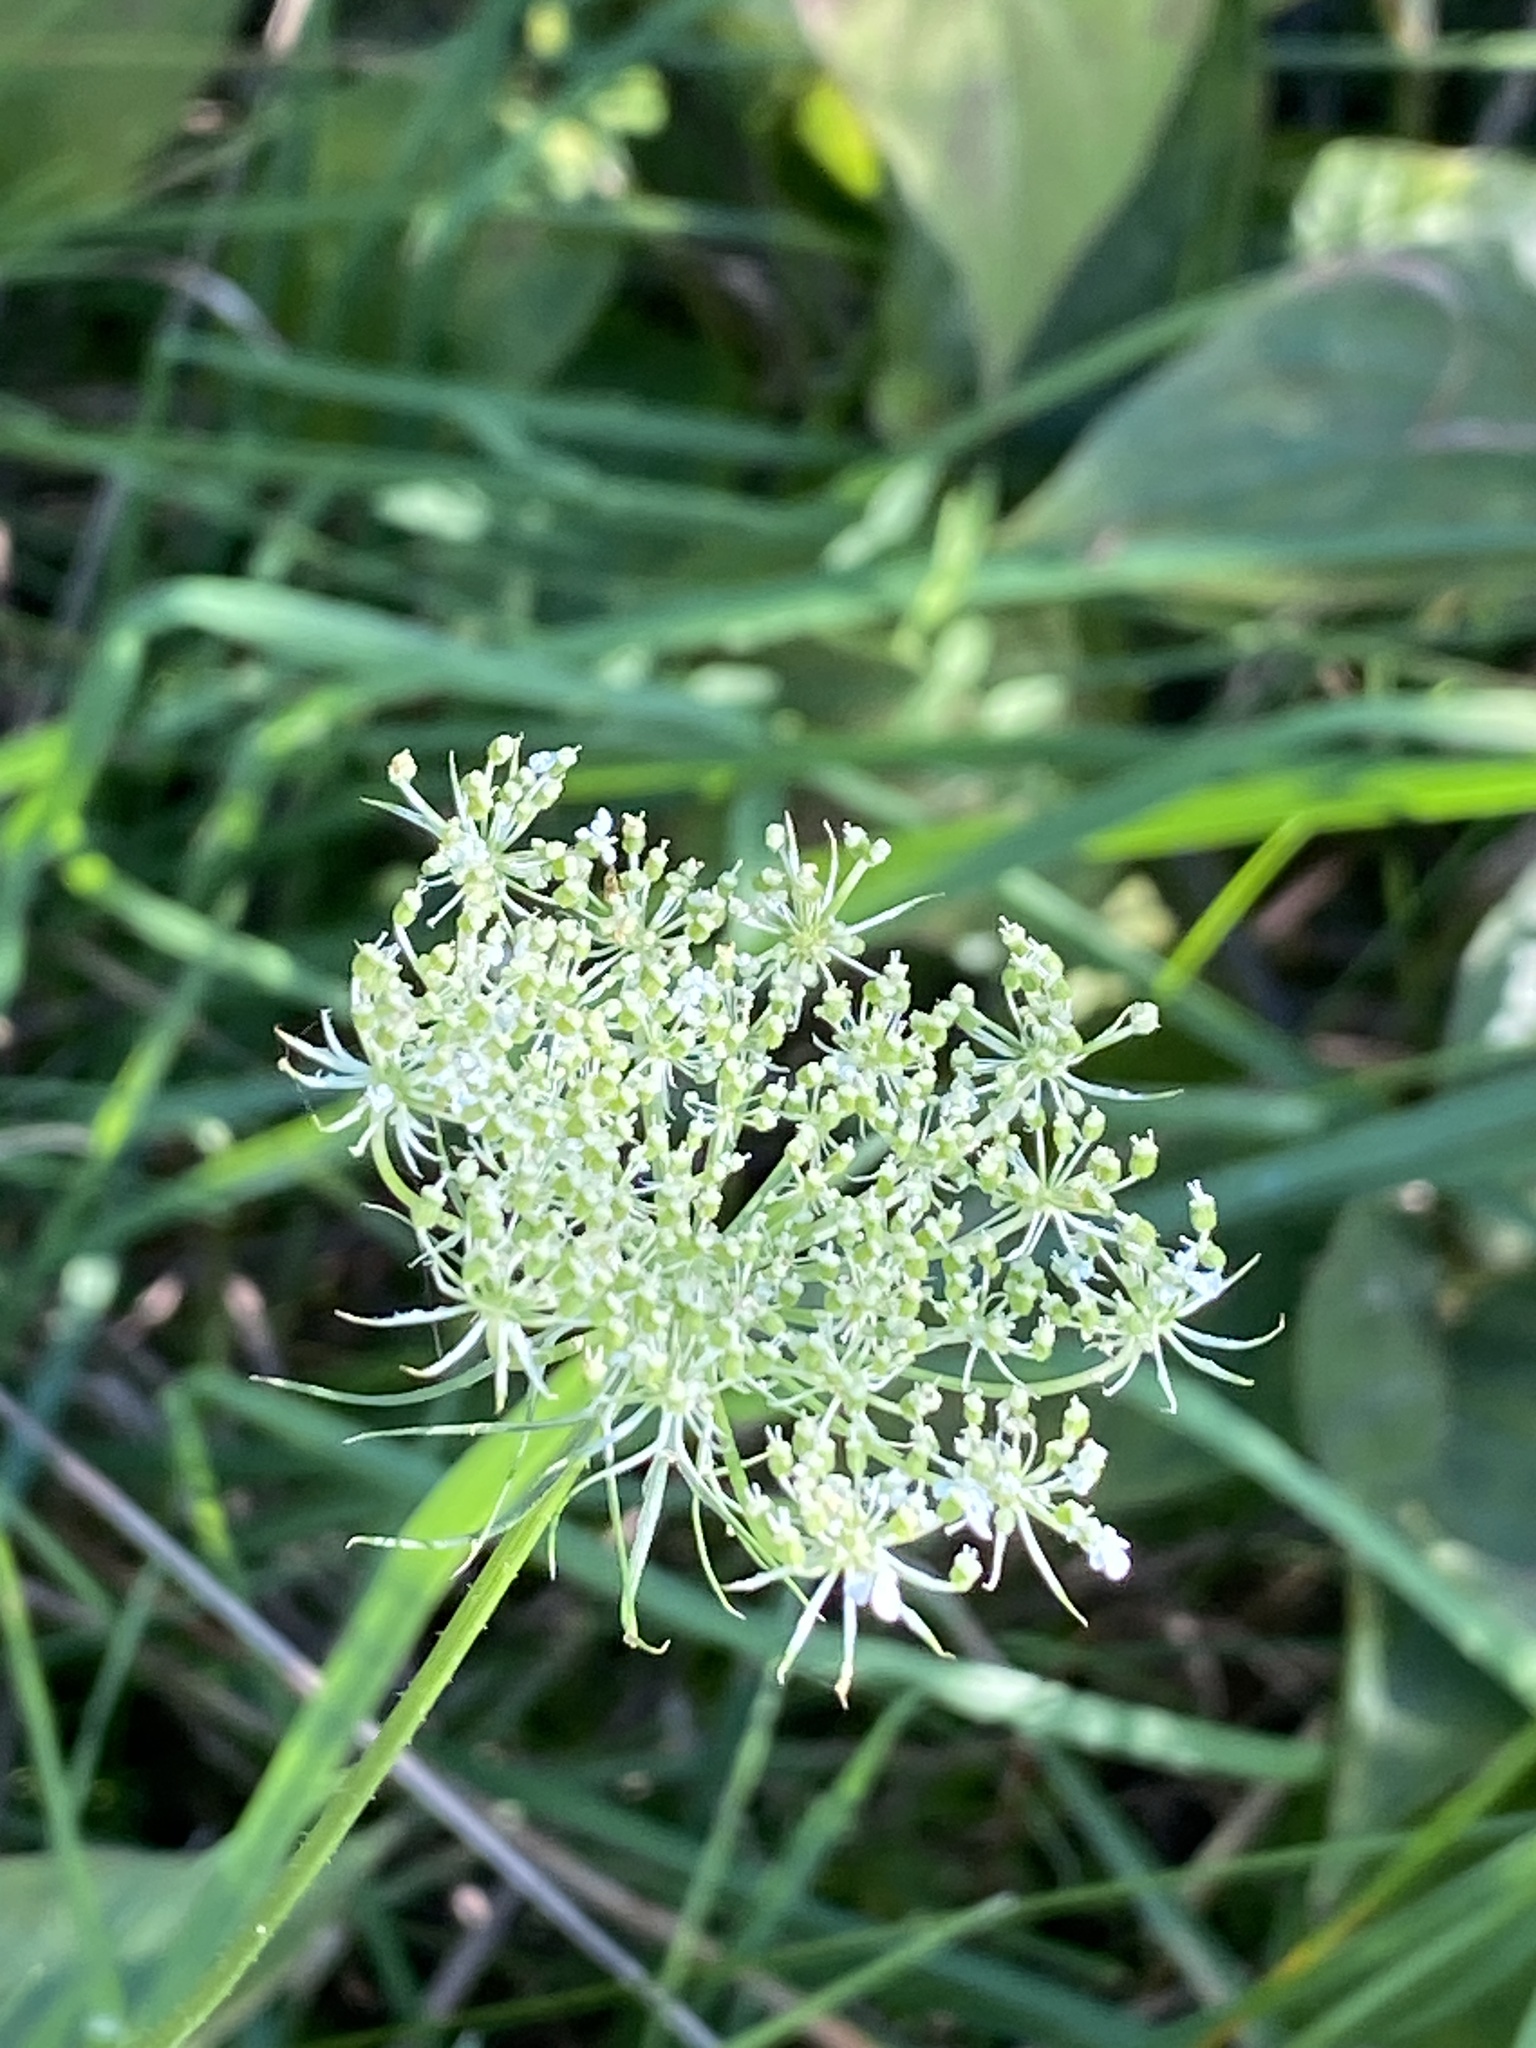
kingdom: Plantae
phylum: Tracheophyta
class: Magnoliopsida
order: Apiales
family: Apiaceae
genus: Daucus
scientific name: Daucus carota
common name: Wild carrot
